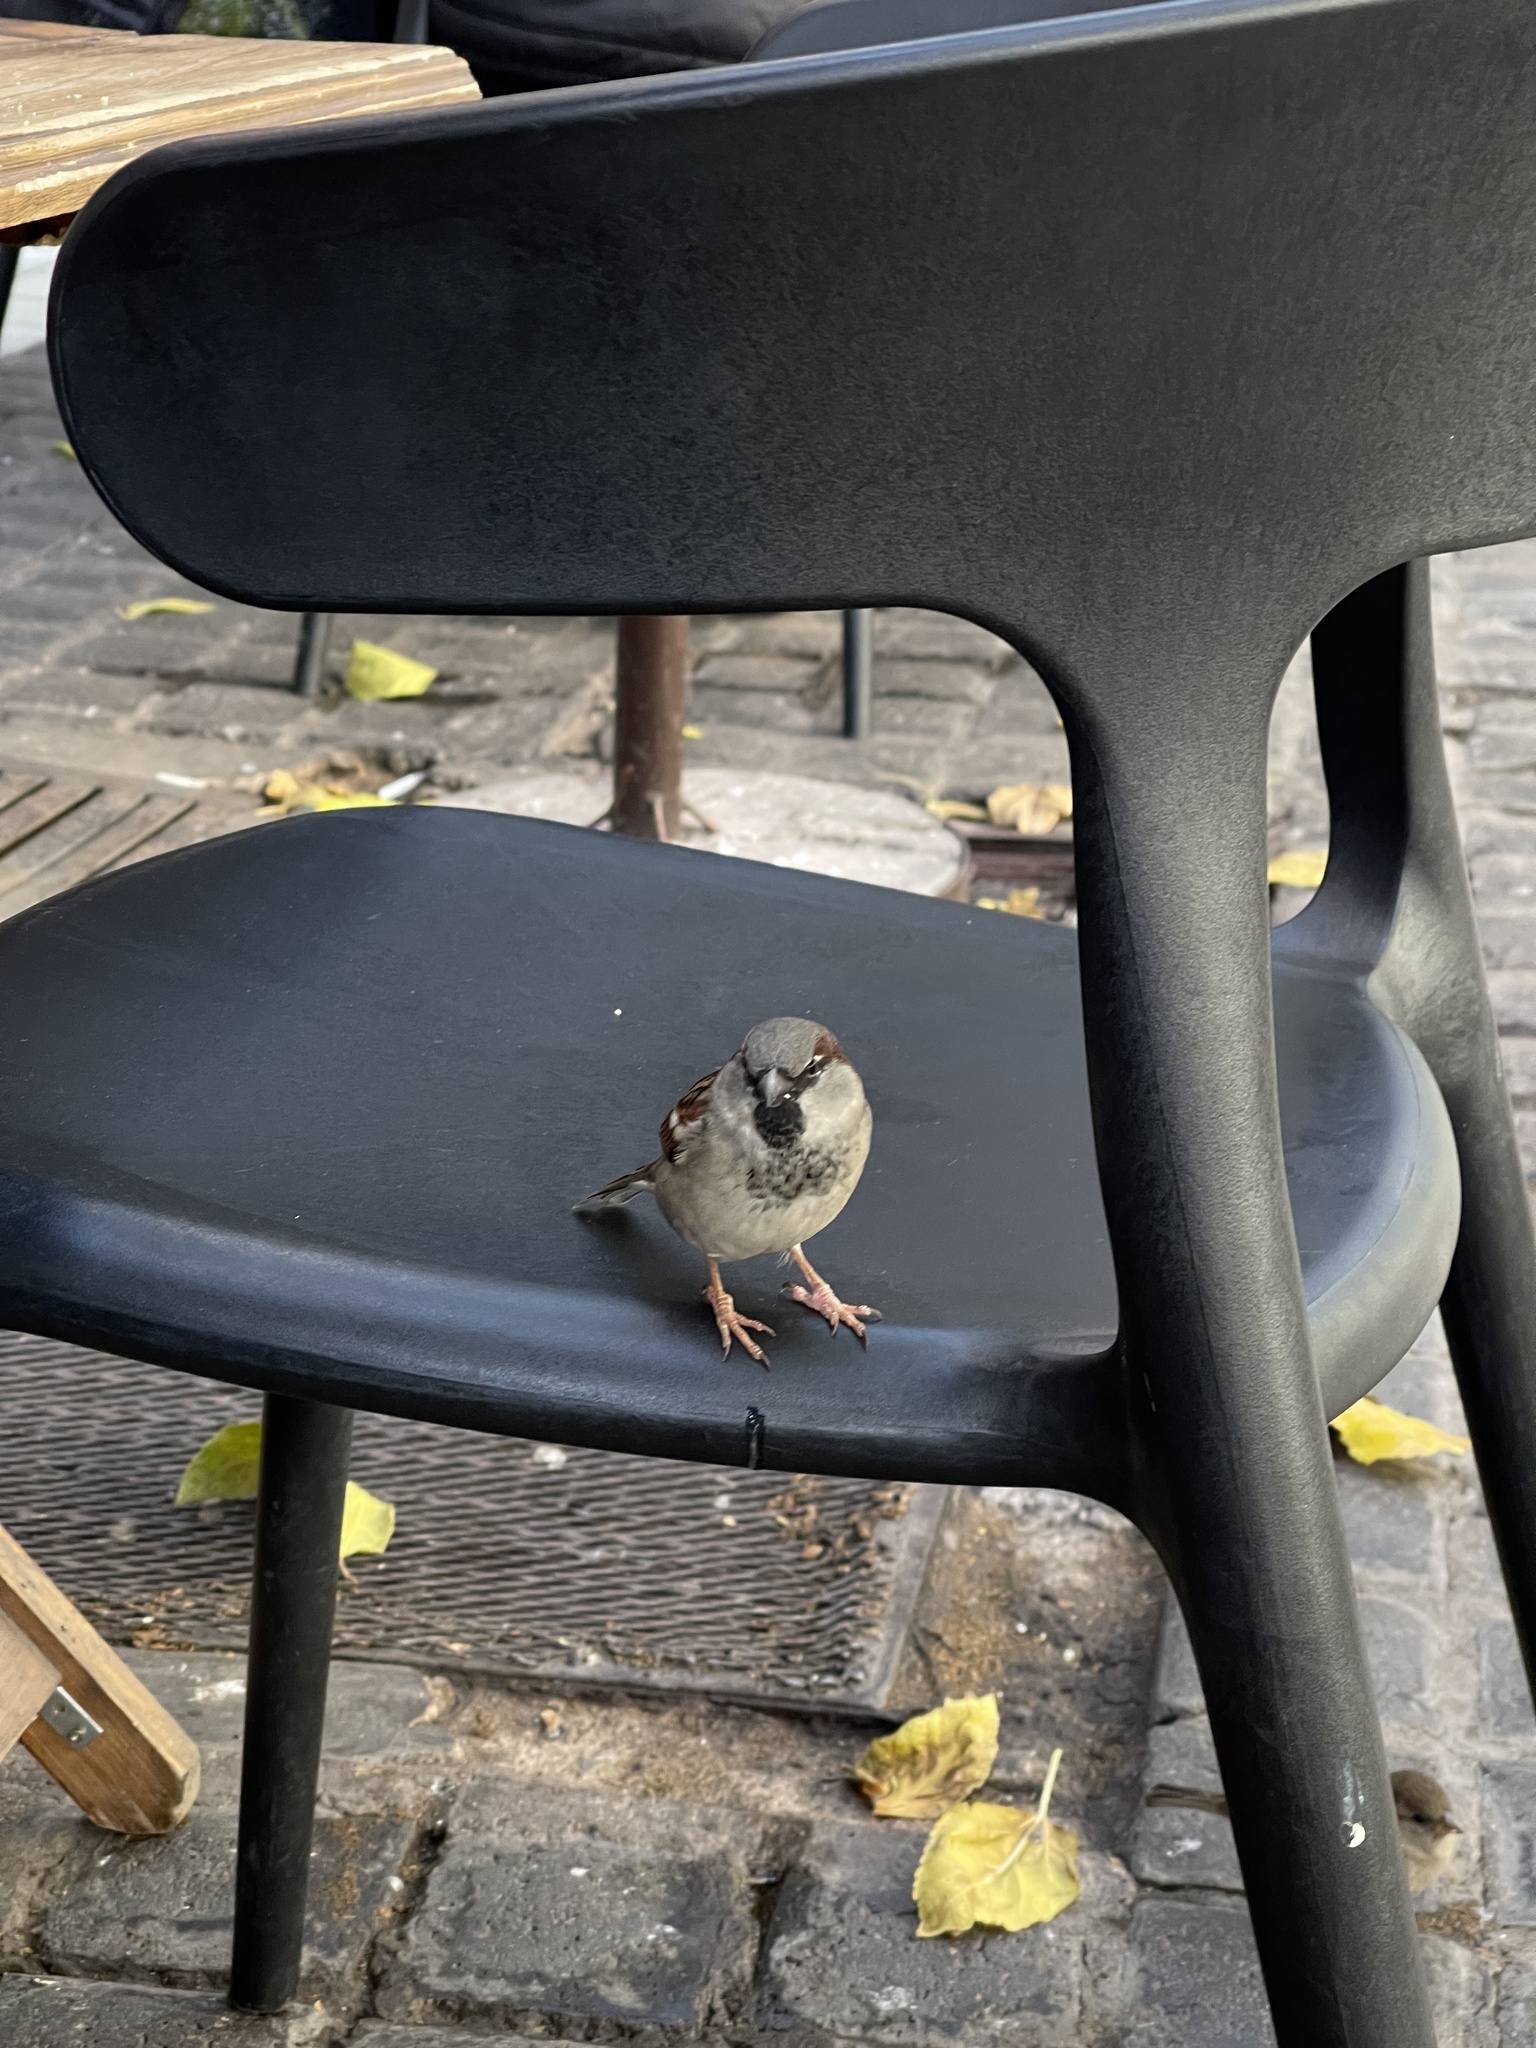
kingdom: Animalia
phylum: Chordata
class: Aves
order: Passeriformes
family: Passeridae
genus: Passer
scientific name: Passer domesticus
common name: House sparrow
